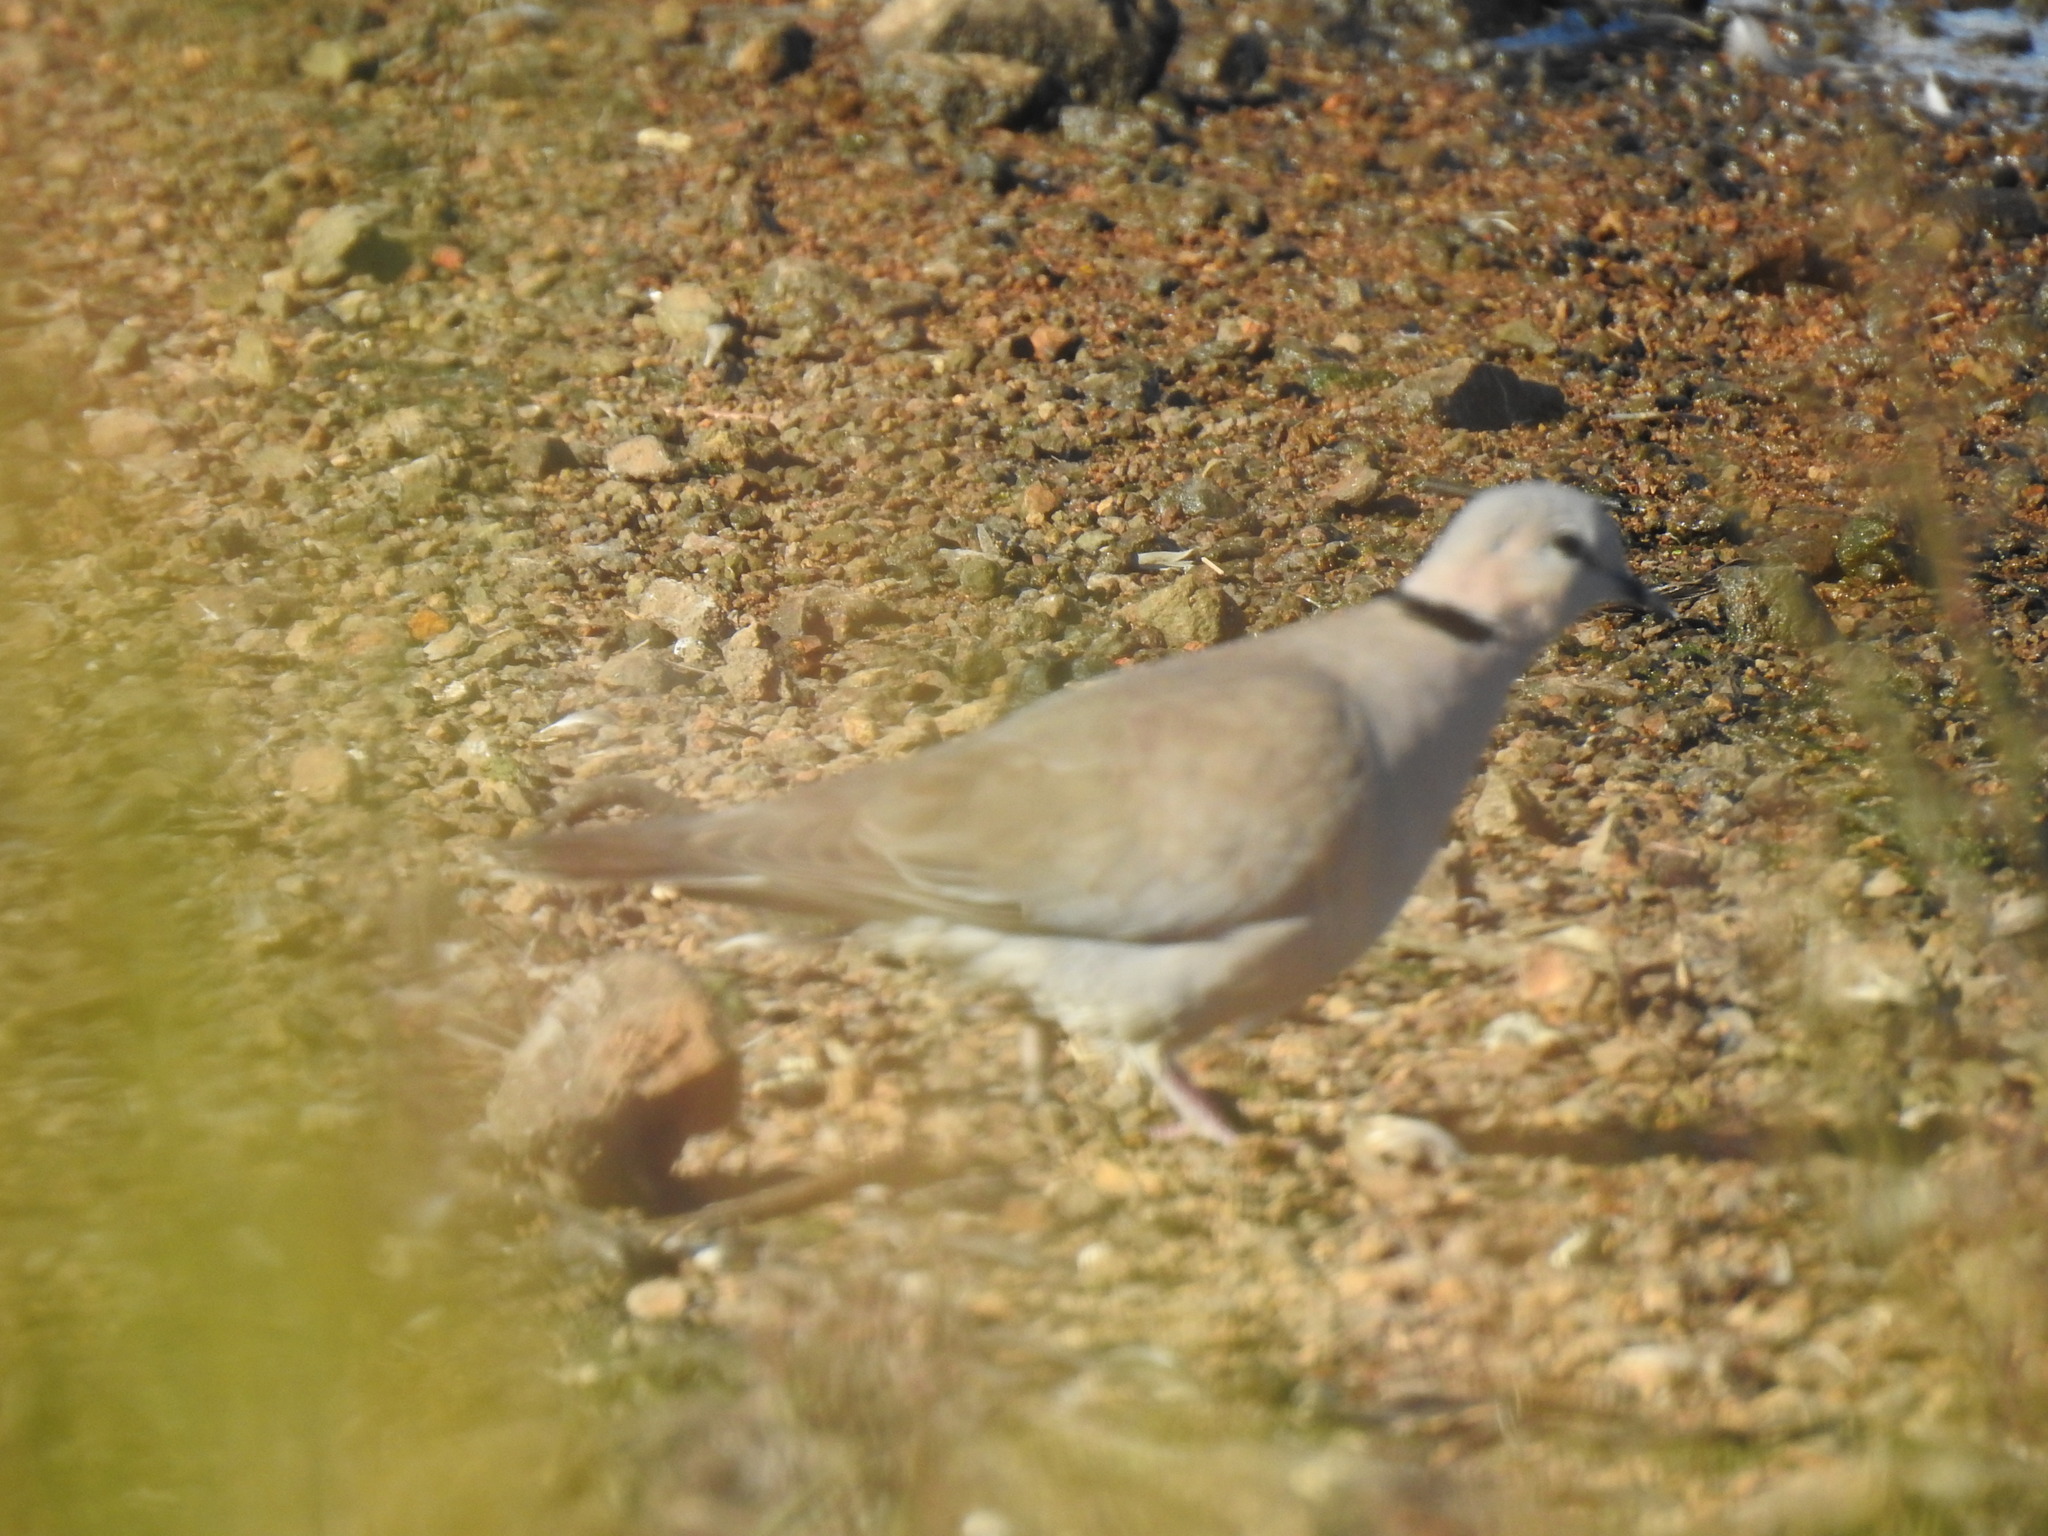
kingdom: Animalia
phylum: Chordata
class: Aves
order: Columbiformes
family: Columbidae
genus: Streptopelia
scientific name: Streptopelia capicola
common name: Ring-necked dove
